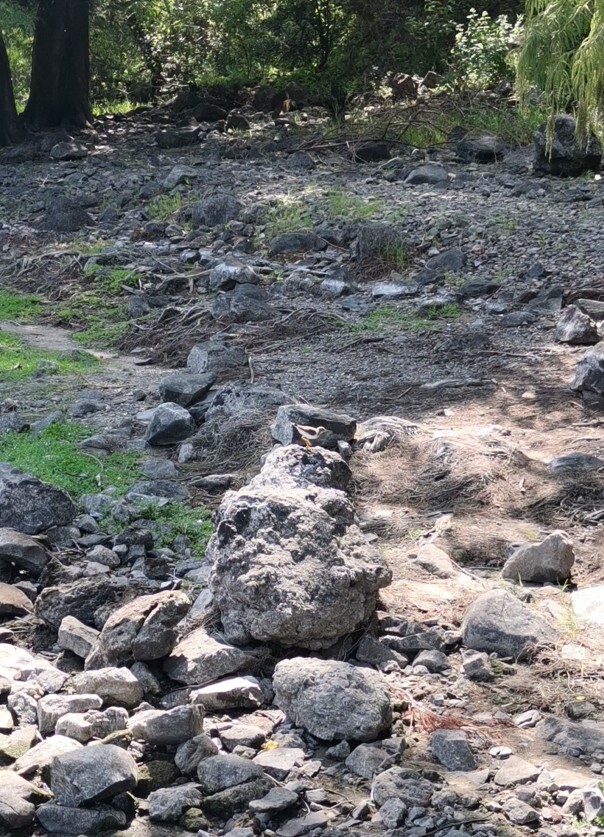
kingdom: Animalia
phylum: Chordata
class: Aves
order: Charadriiformes
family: Scolopacidae
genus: Actitis
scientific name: Actitis macularius
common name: Spotted sandpiper
